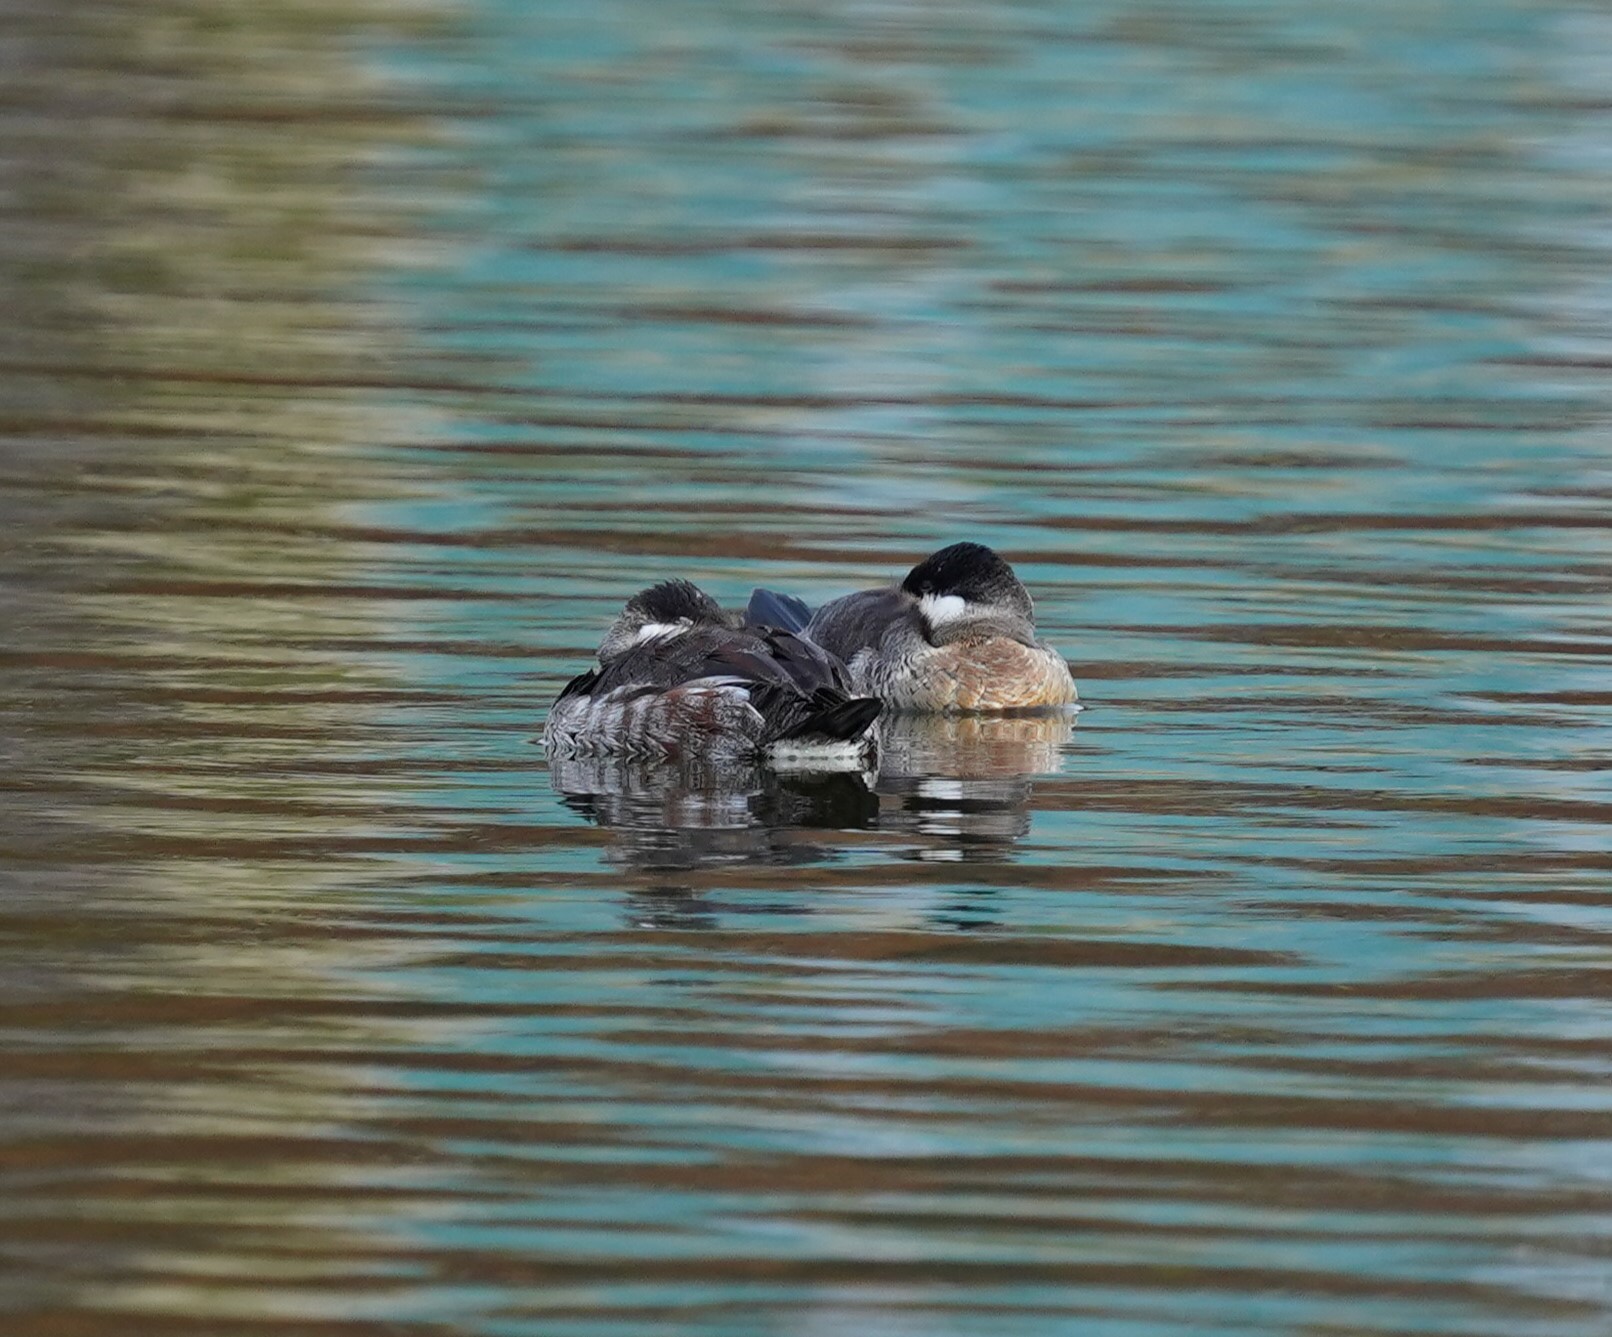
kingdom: Animalia
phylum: Chordata
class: Aves
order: Anseriformes
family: Anatidae
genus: Oxyura
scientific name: Oxyura jamaicensis
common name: Ruddy duck
